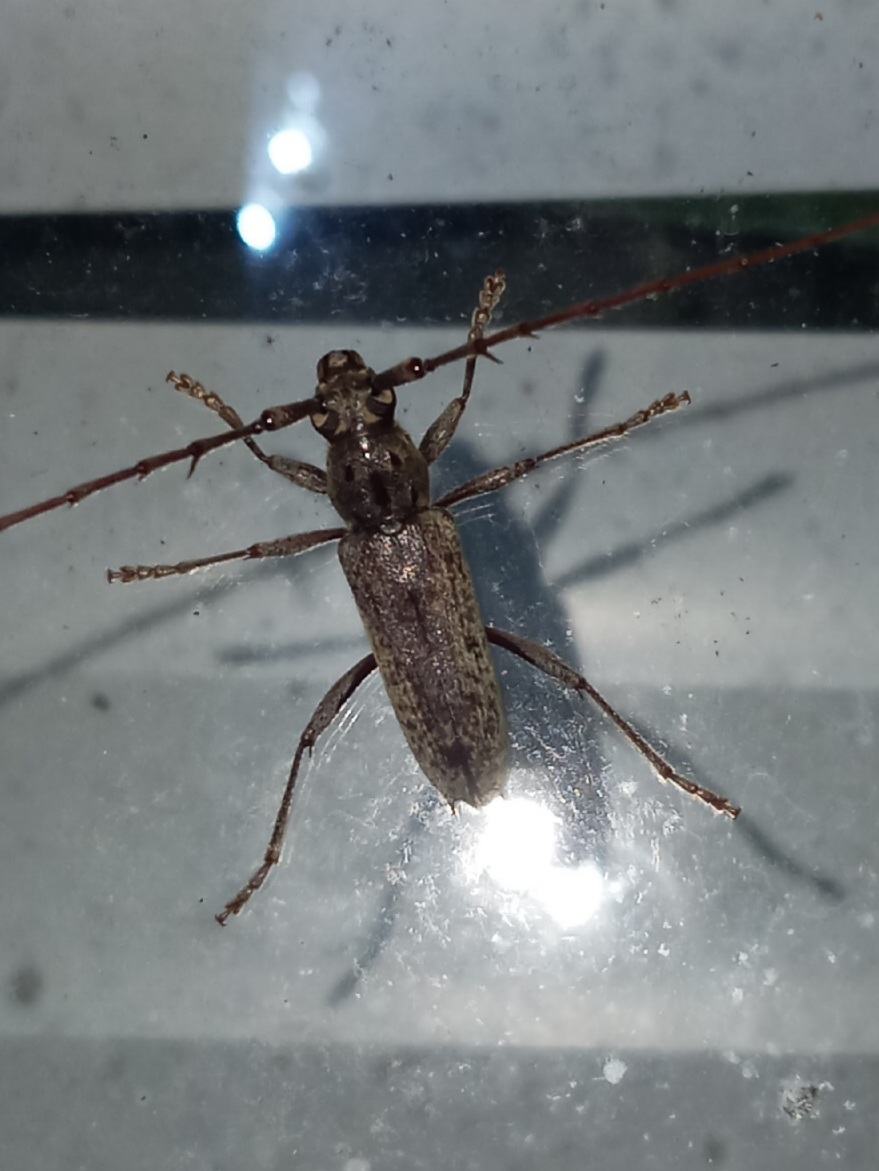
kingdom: Animalia
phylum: Arthropoda
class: Insecta
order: Coleoptera
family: Cerambycidae
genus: Elaphidion
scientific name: Elaphidion mucronatum
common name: Spined oak borer
